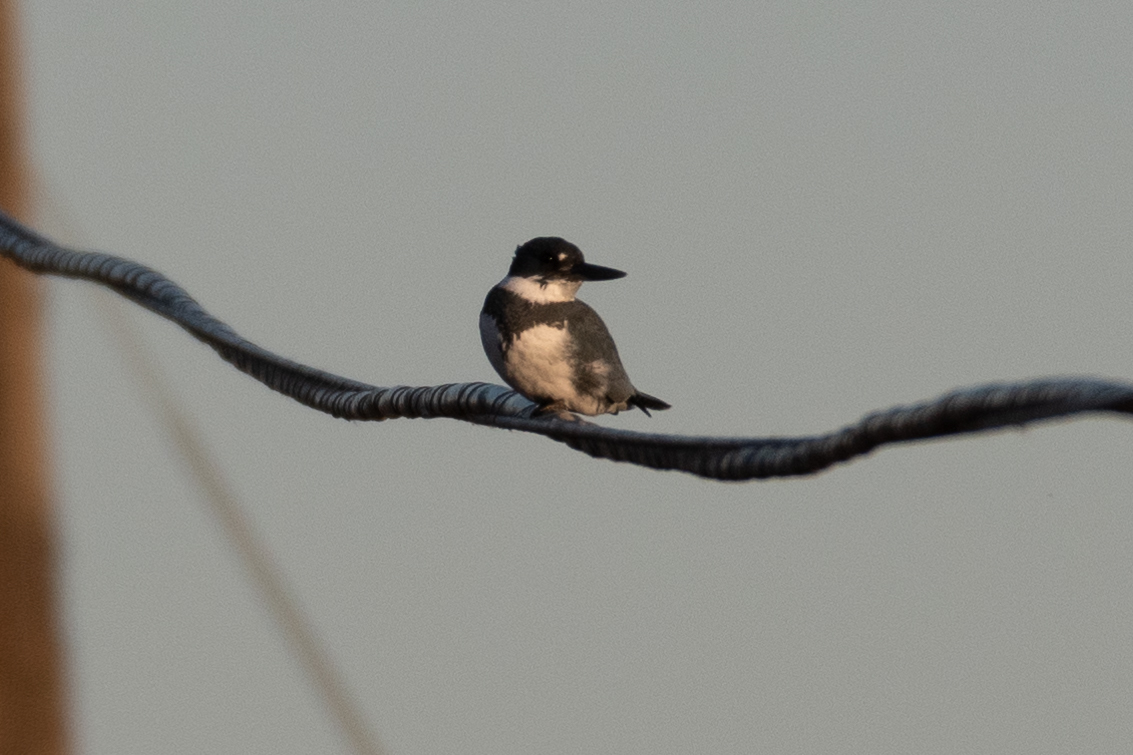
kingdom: Animalia
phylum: Chordata
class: Aves
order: Coraciiformes
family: Alcedinidae
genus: Megaceryle
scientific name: Megaceryle alcyon
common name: Belted kingfisher
